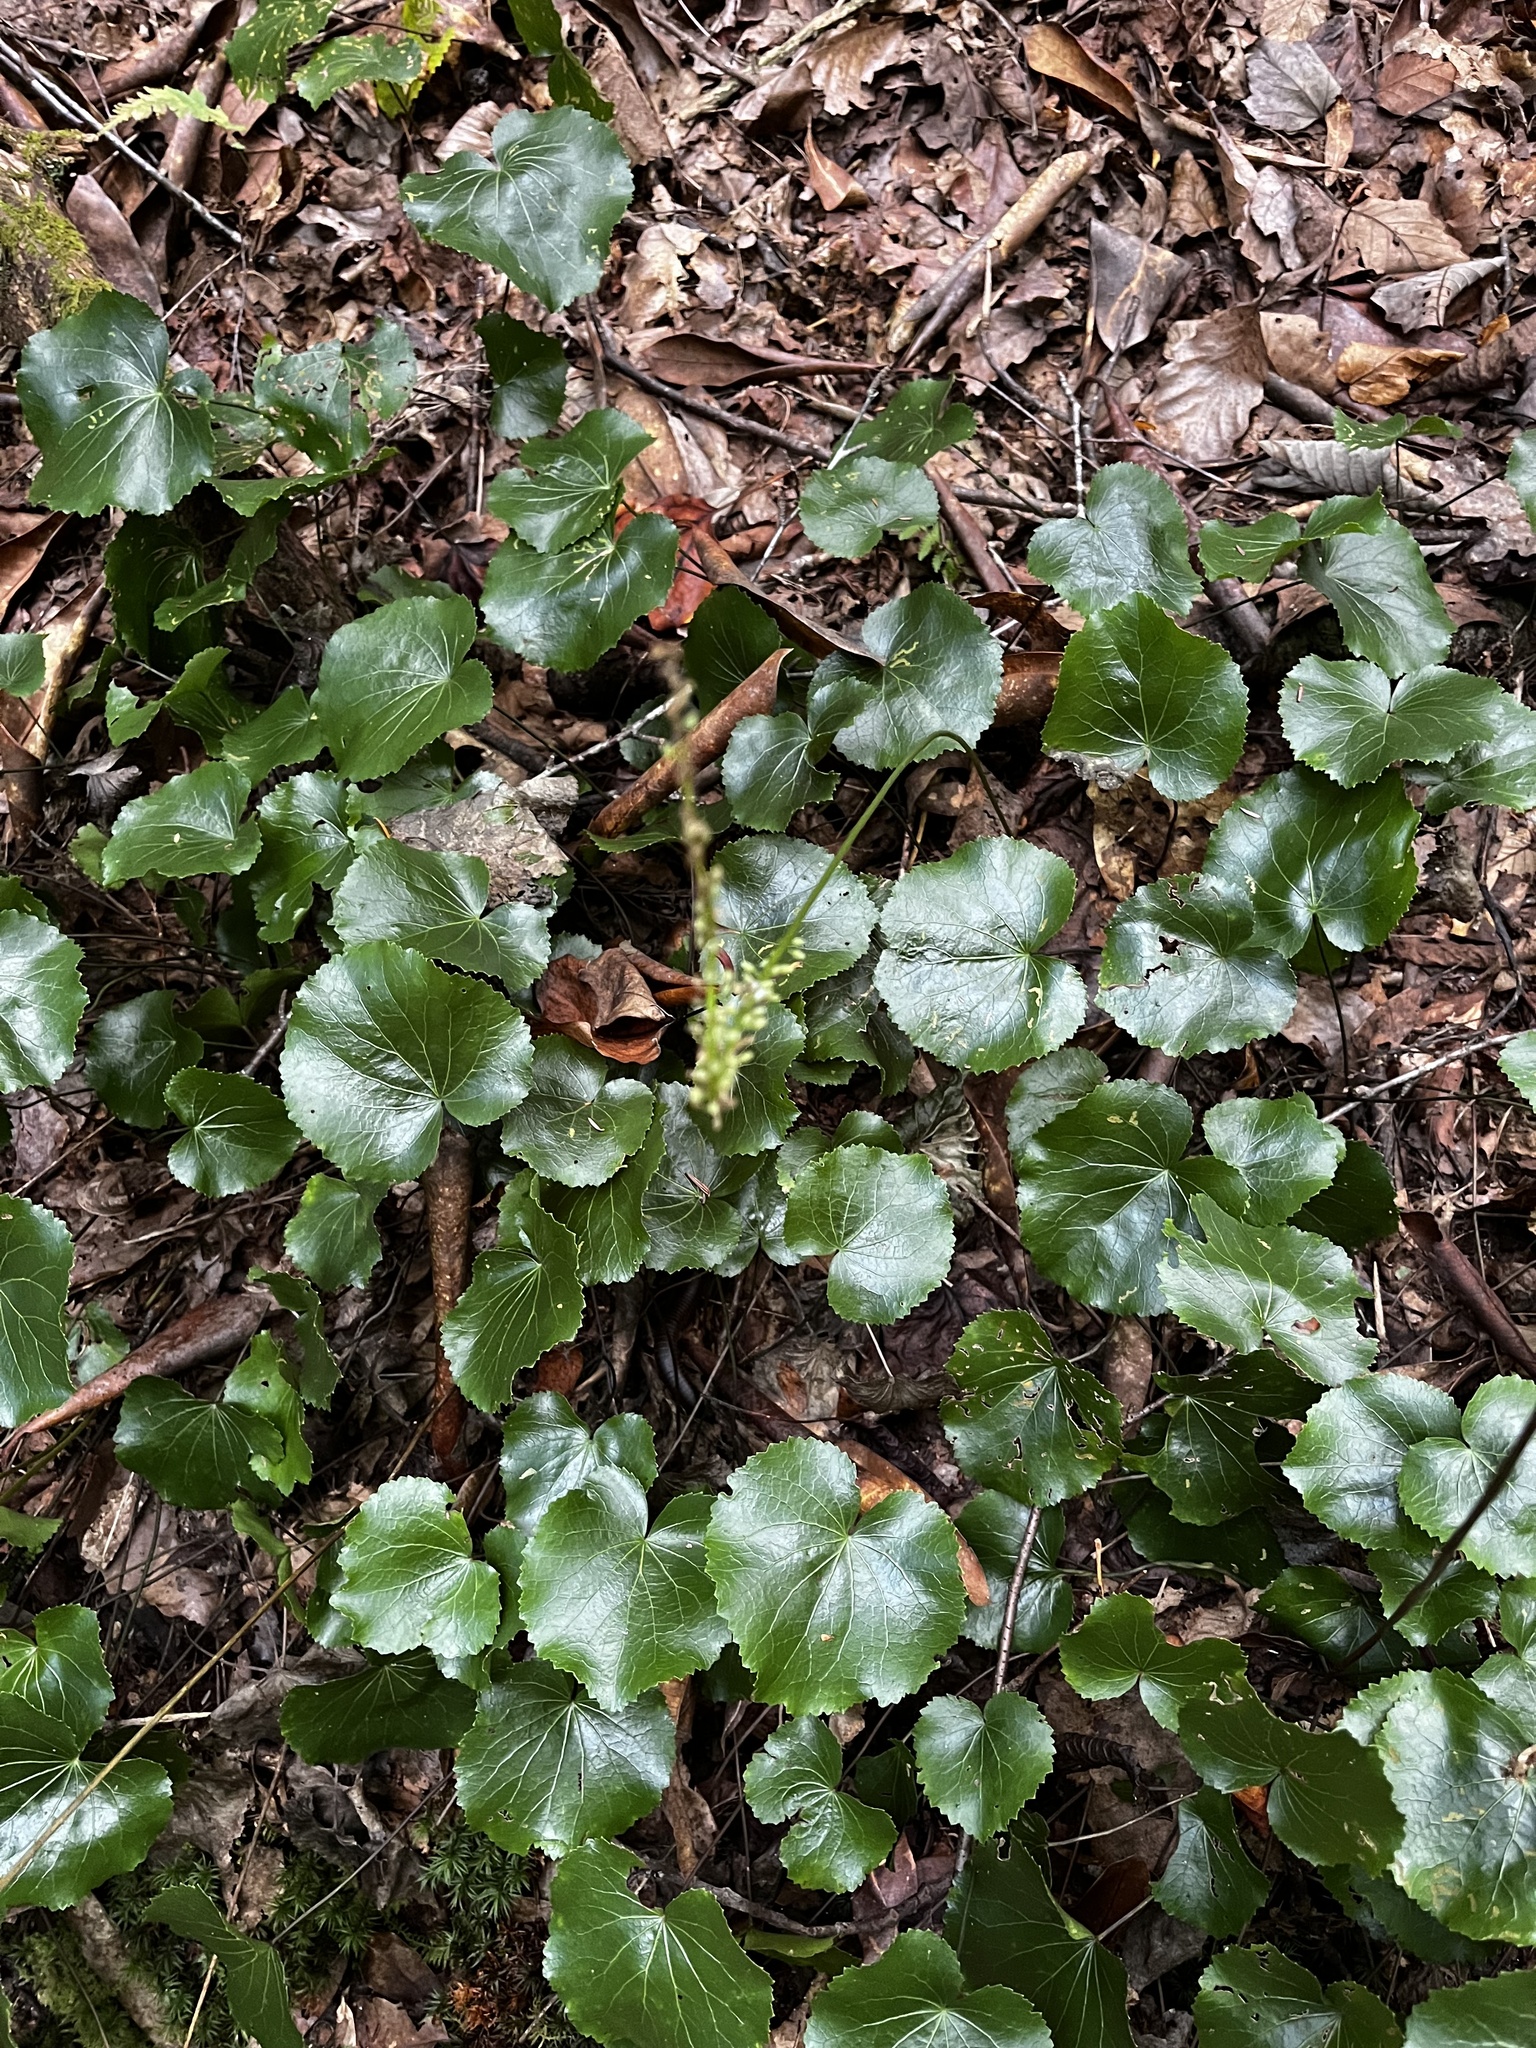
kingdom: Plantae
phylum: Tracheophyta
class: Magnoliopsida
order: Ericales
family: Diapensiaceae
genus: Galax
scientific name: Galax urceolata
